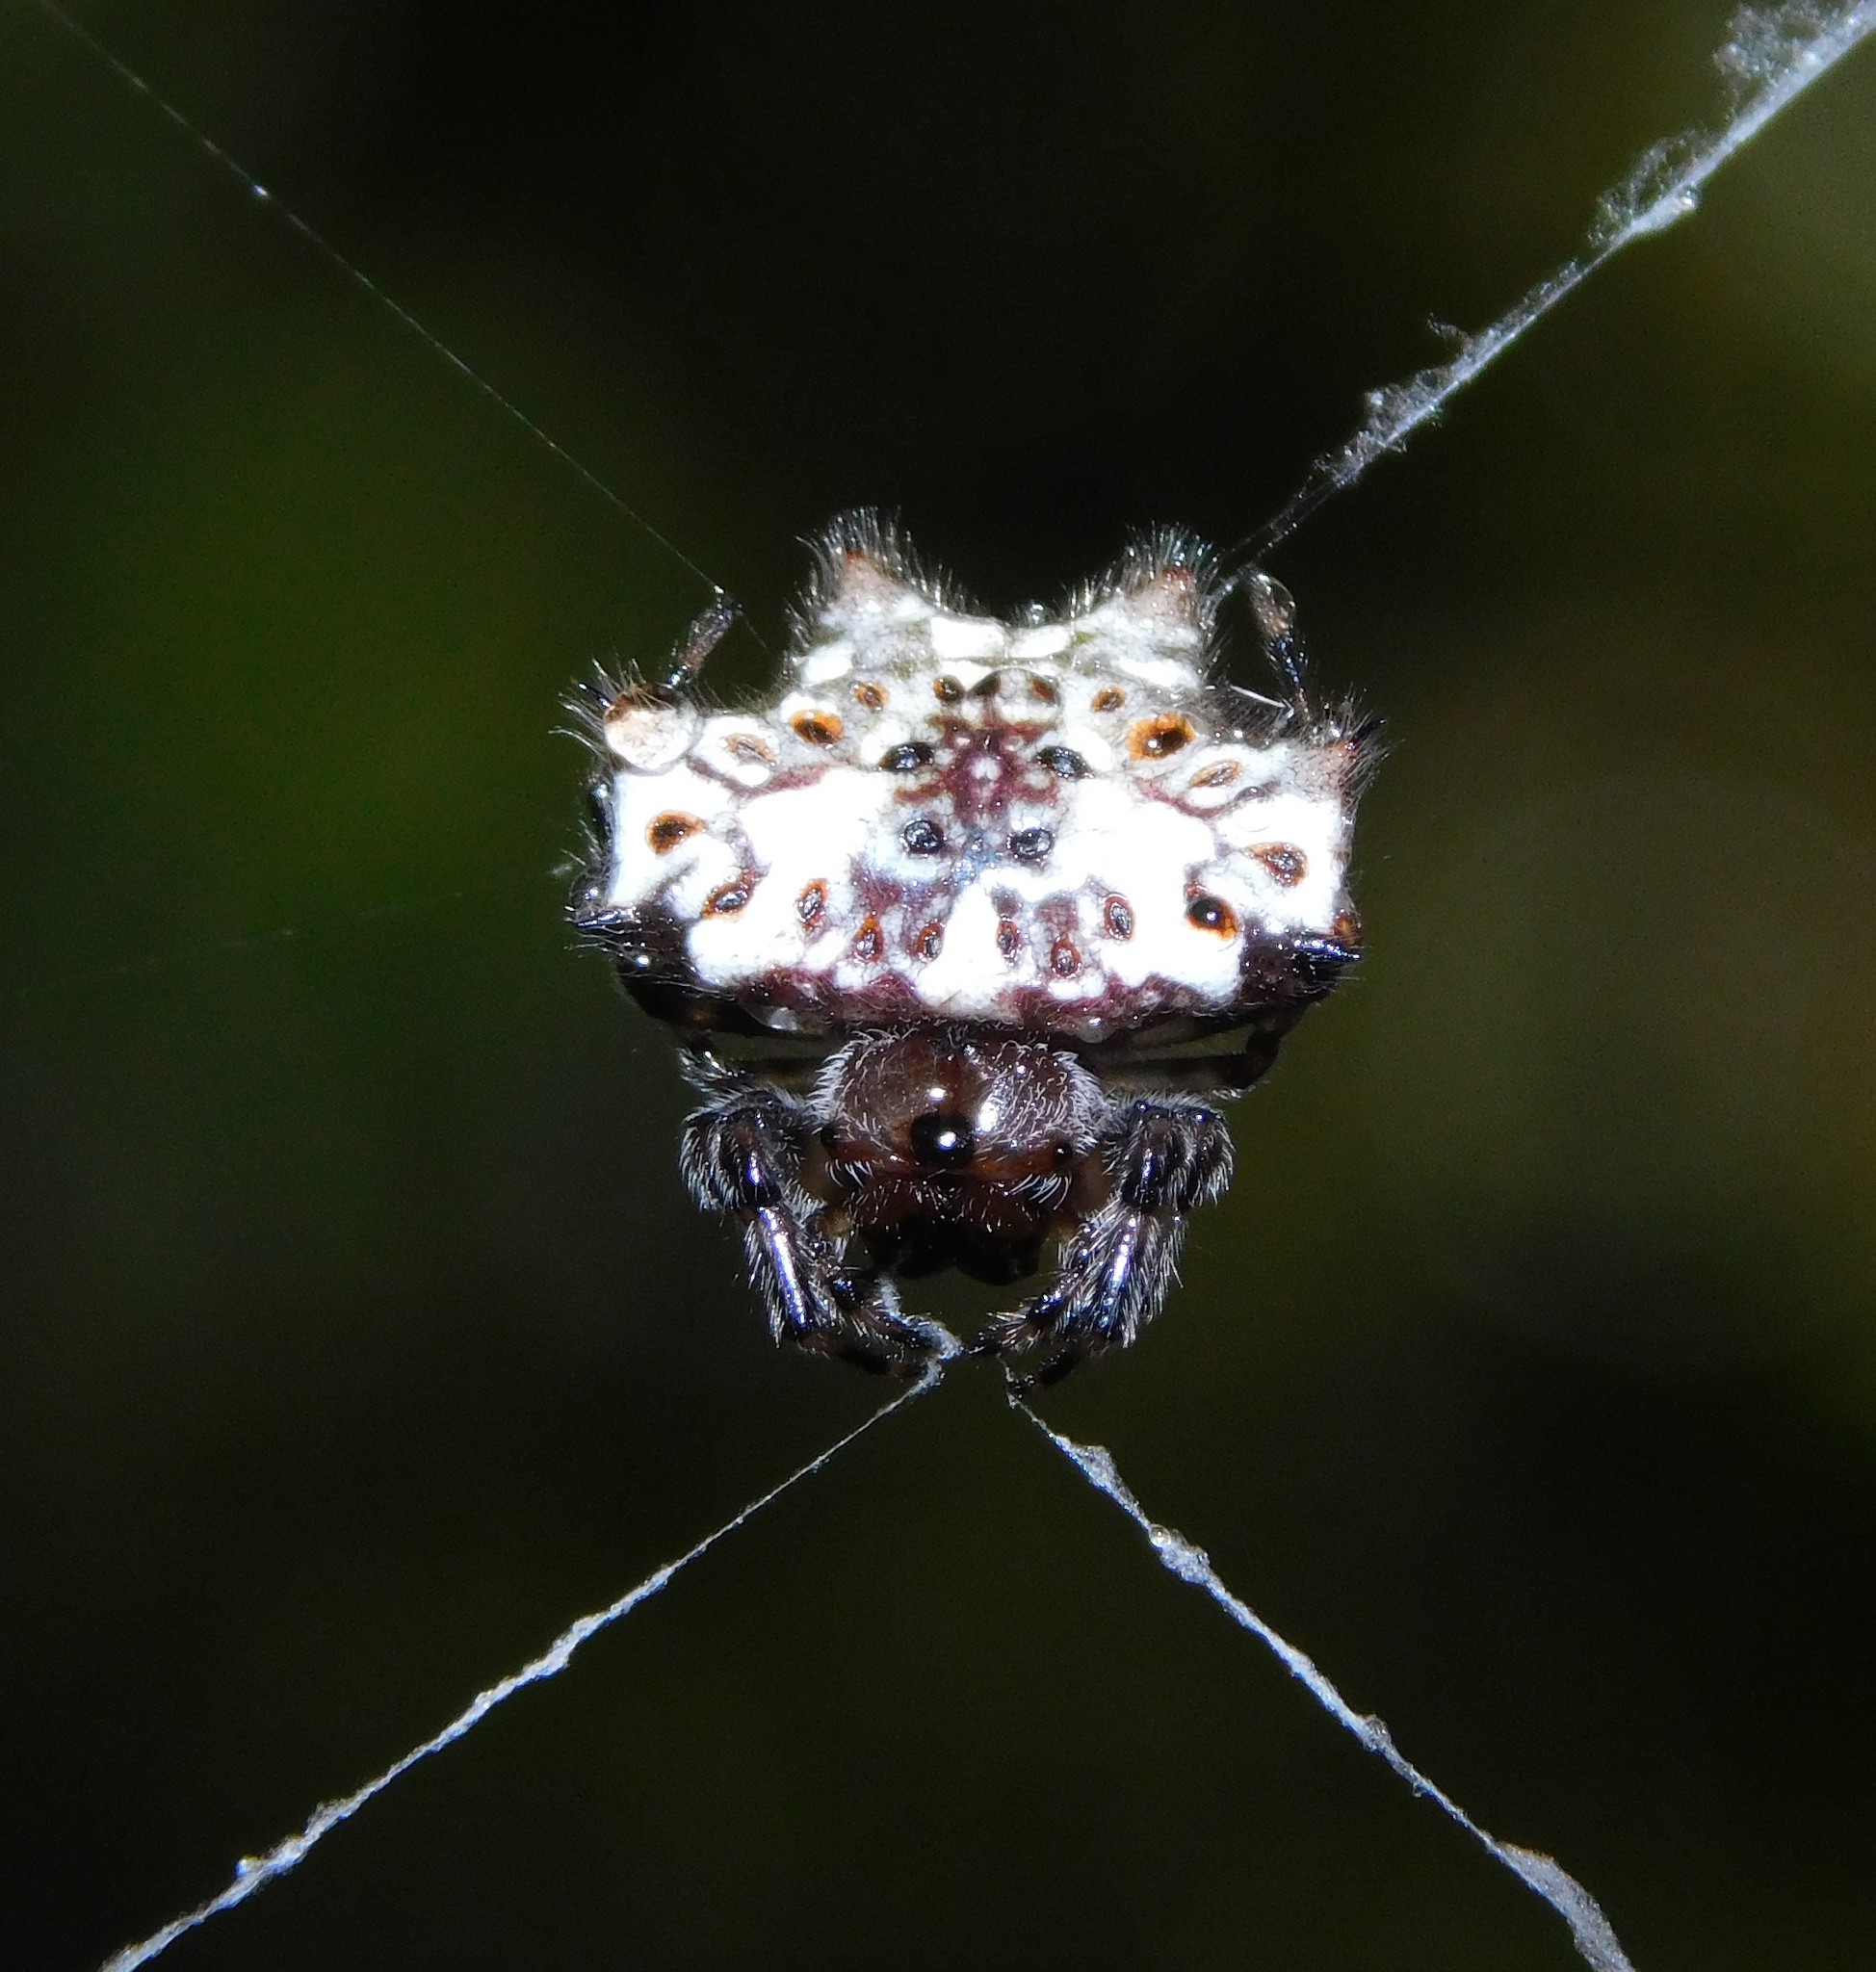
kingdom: Animalia
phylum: Arthropoda
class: Arachnida
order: Araneae
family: Araneidae
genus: Gasteracantha
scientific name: Gasteracantha kuhli
